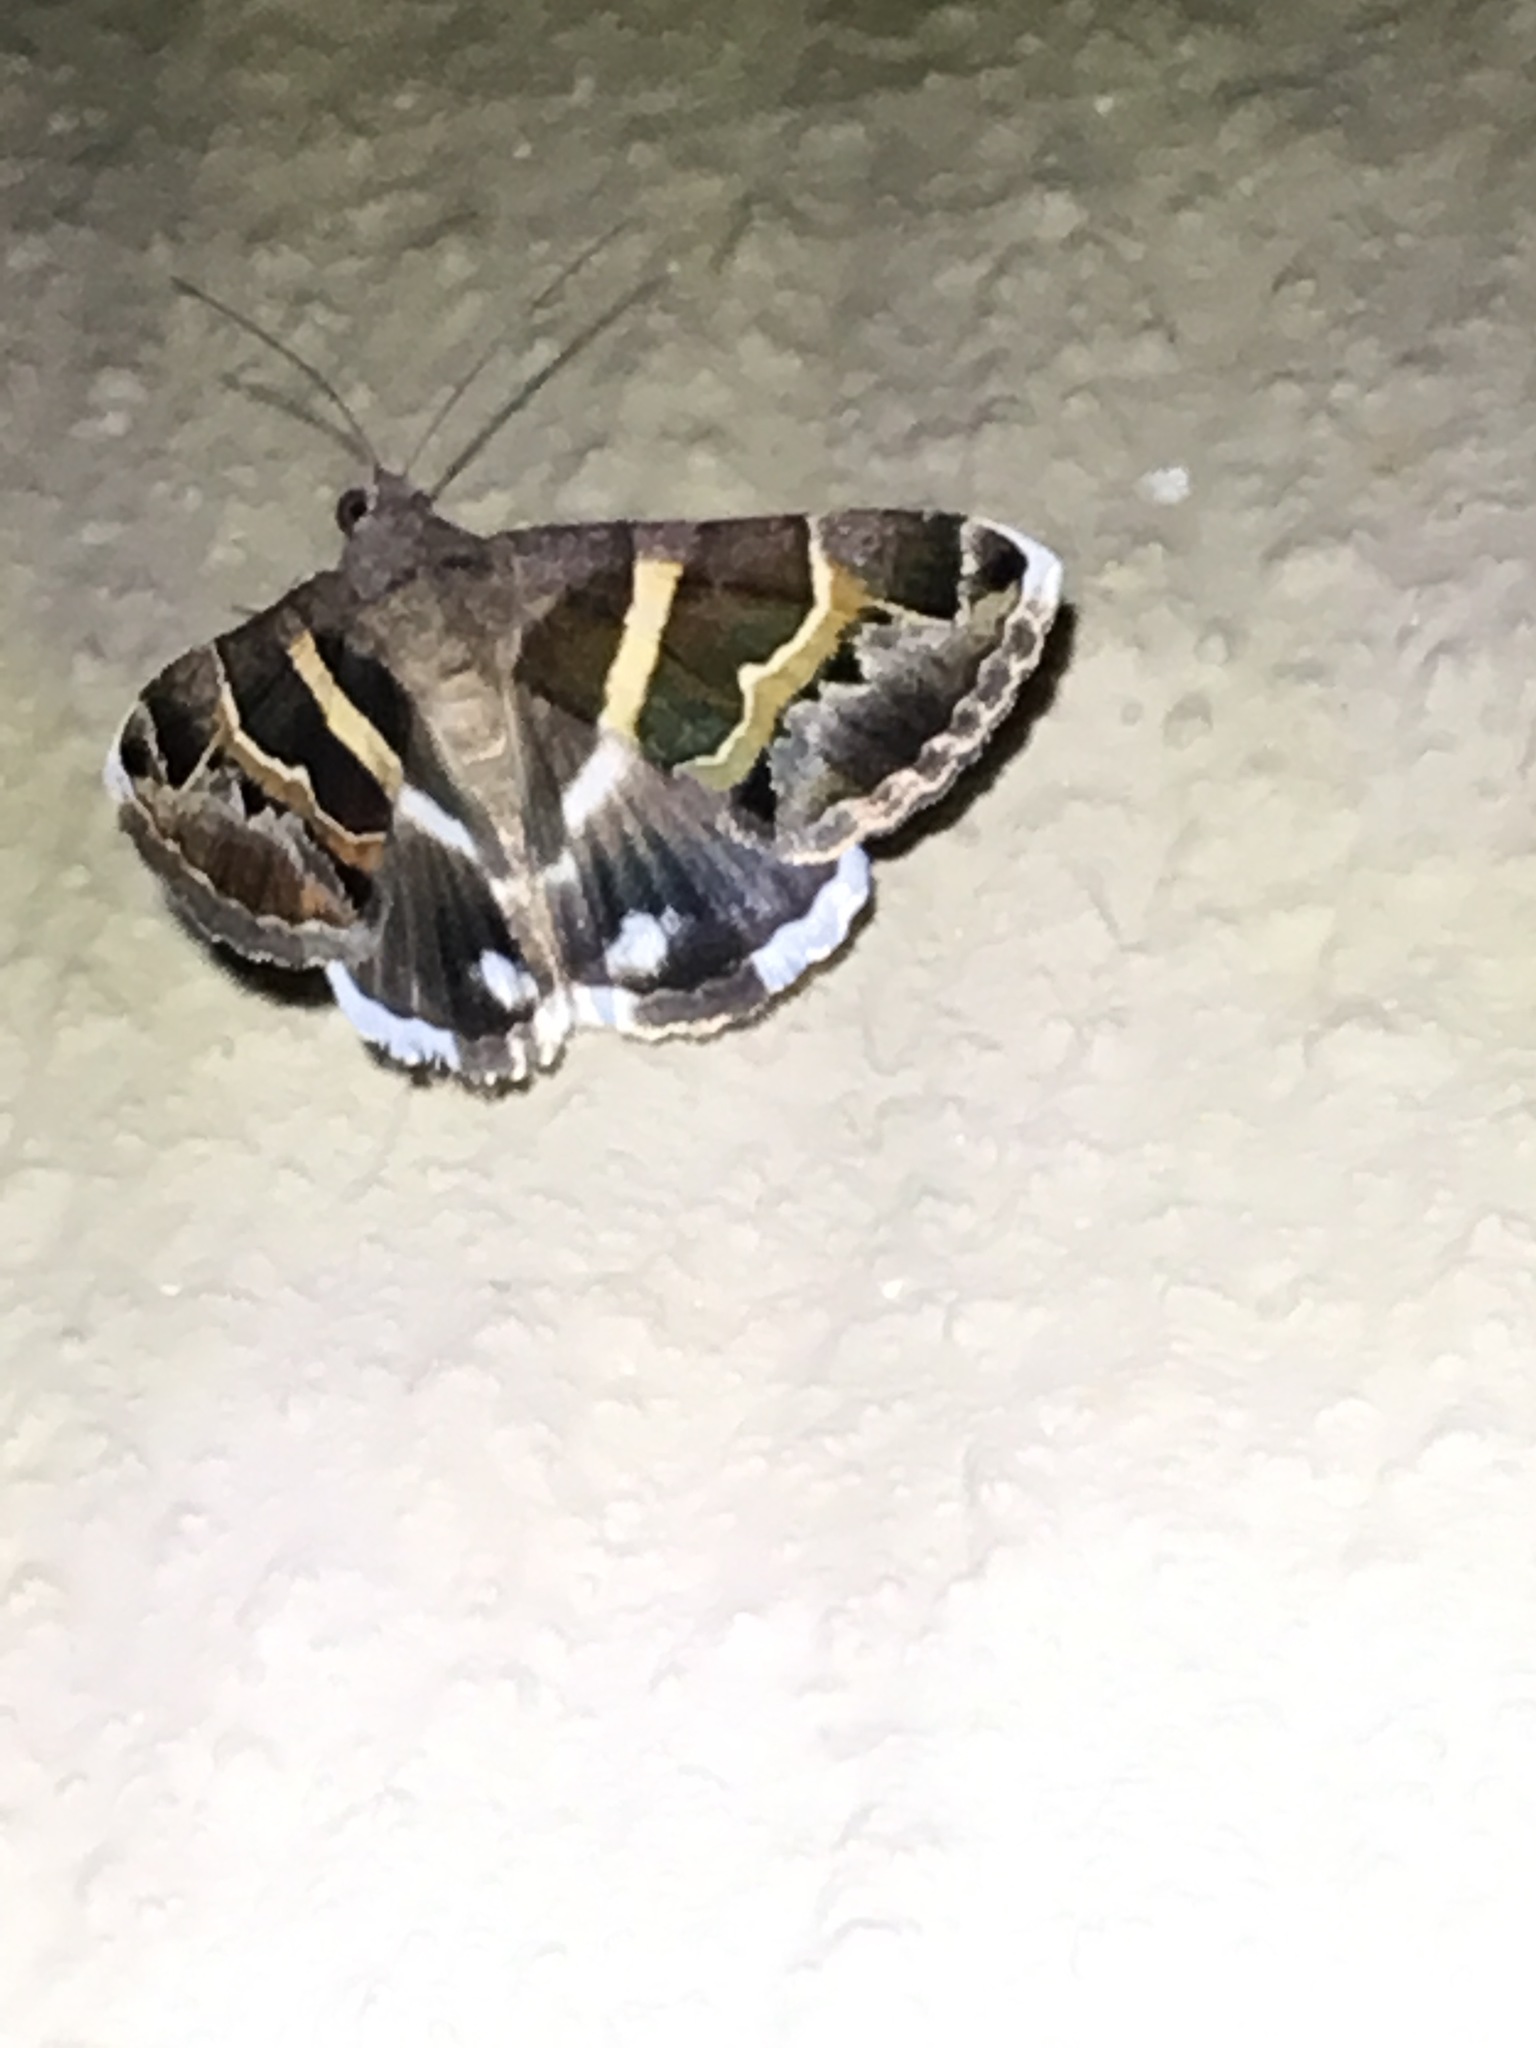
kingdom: Animalia
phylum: Arthropoda
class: Insecta
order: Lepidoptera
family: Erebidae
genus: Grammodes
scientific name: Grammodes stolida
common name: Geometrician
